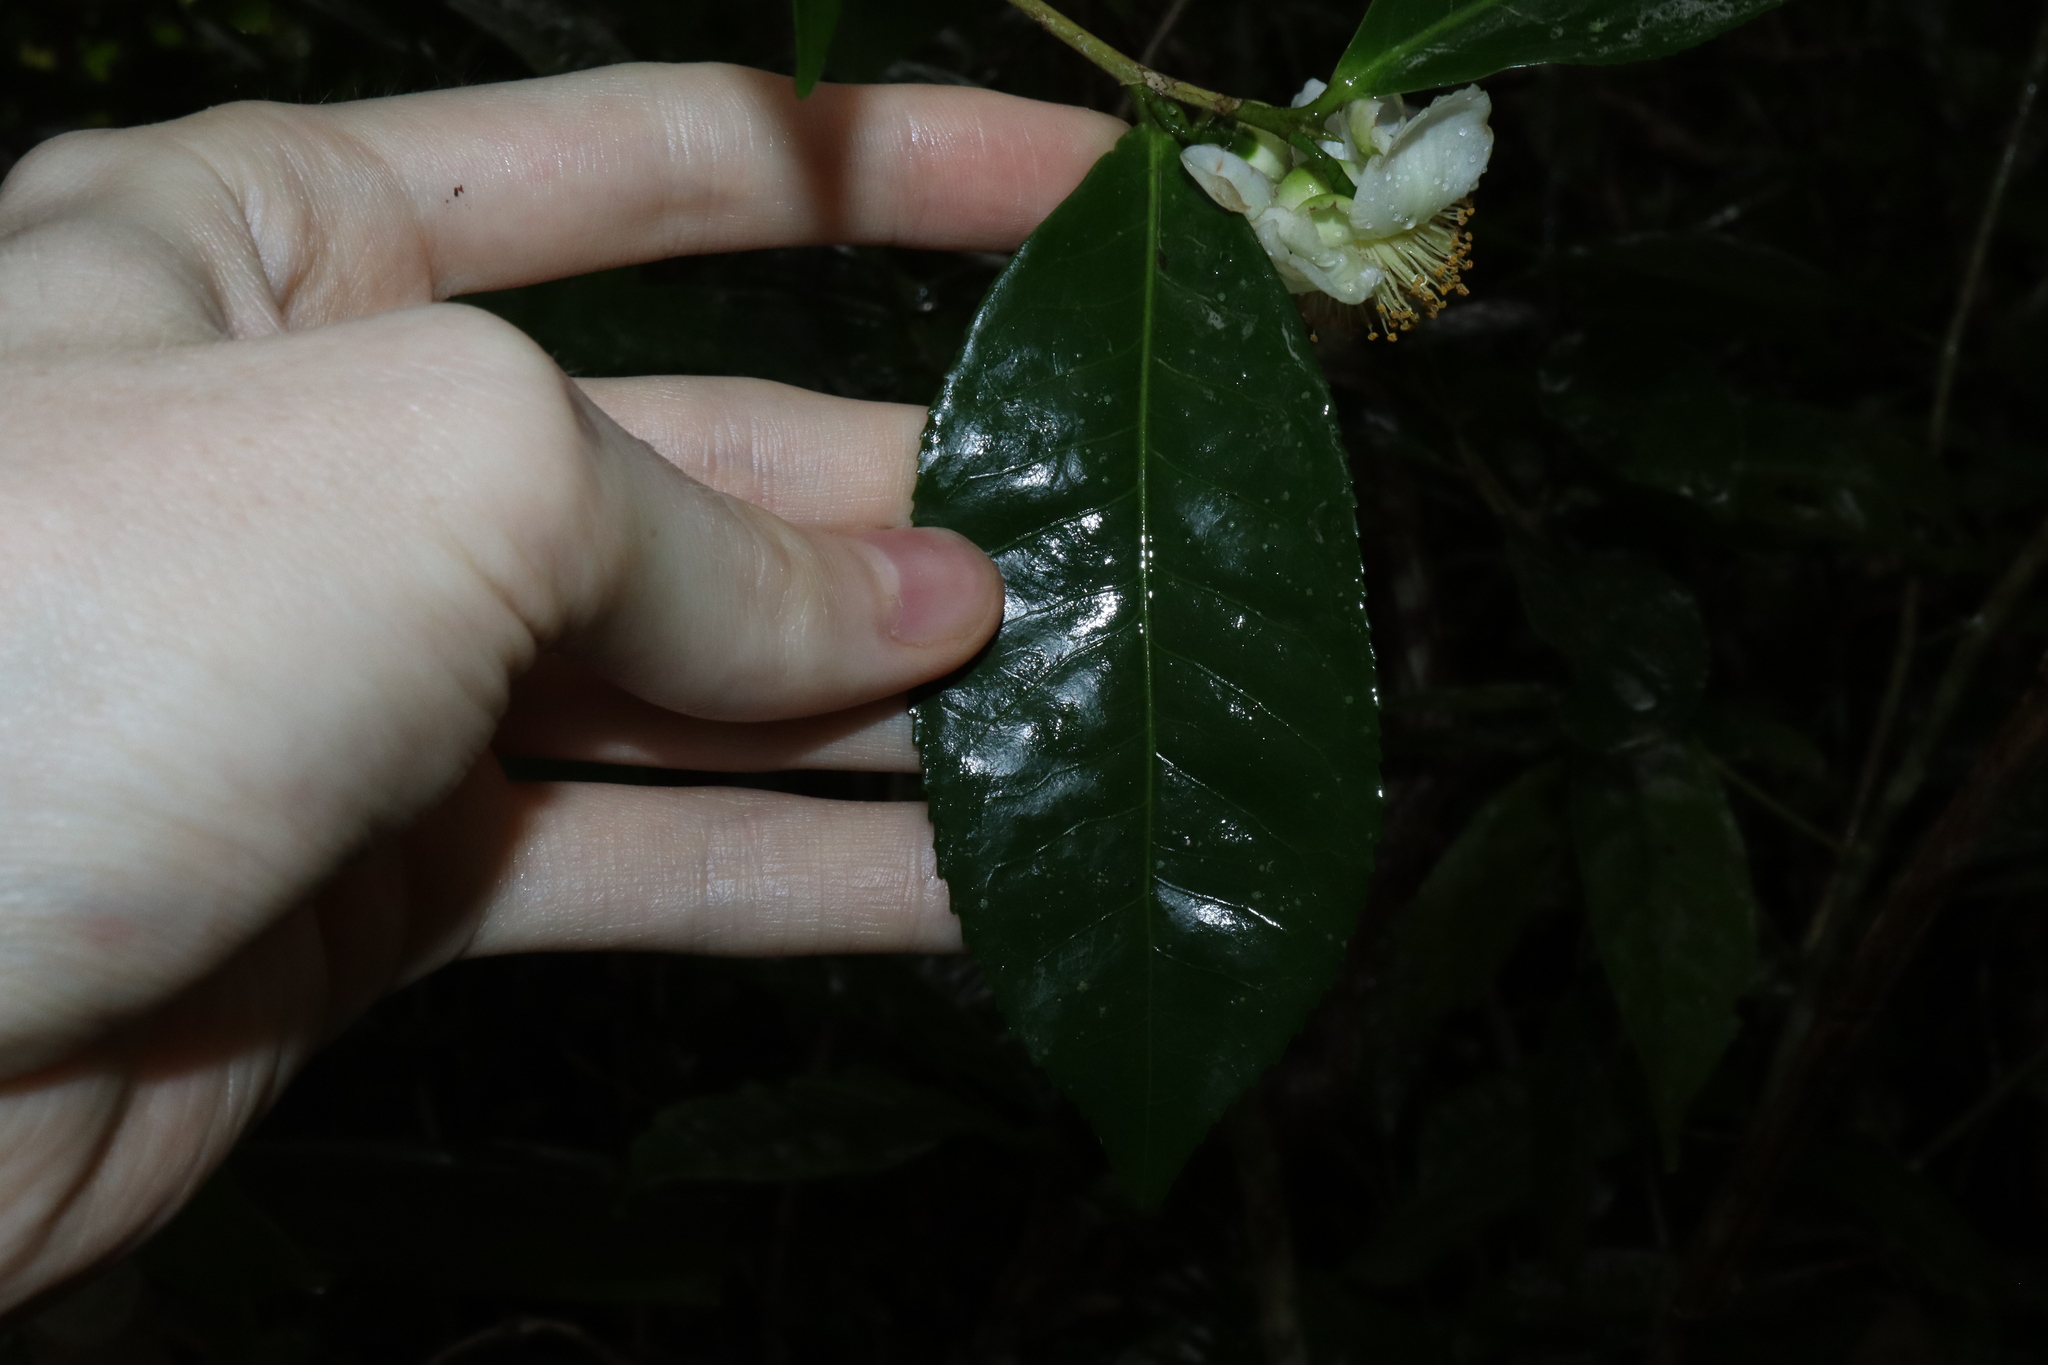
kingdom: Plantae
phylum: Tracheophyta
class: Magnoliopsida
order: Ericales
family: Theaceae
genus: Camellia
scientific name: Camellia sinensis
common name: Tea
